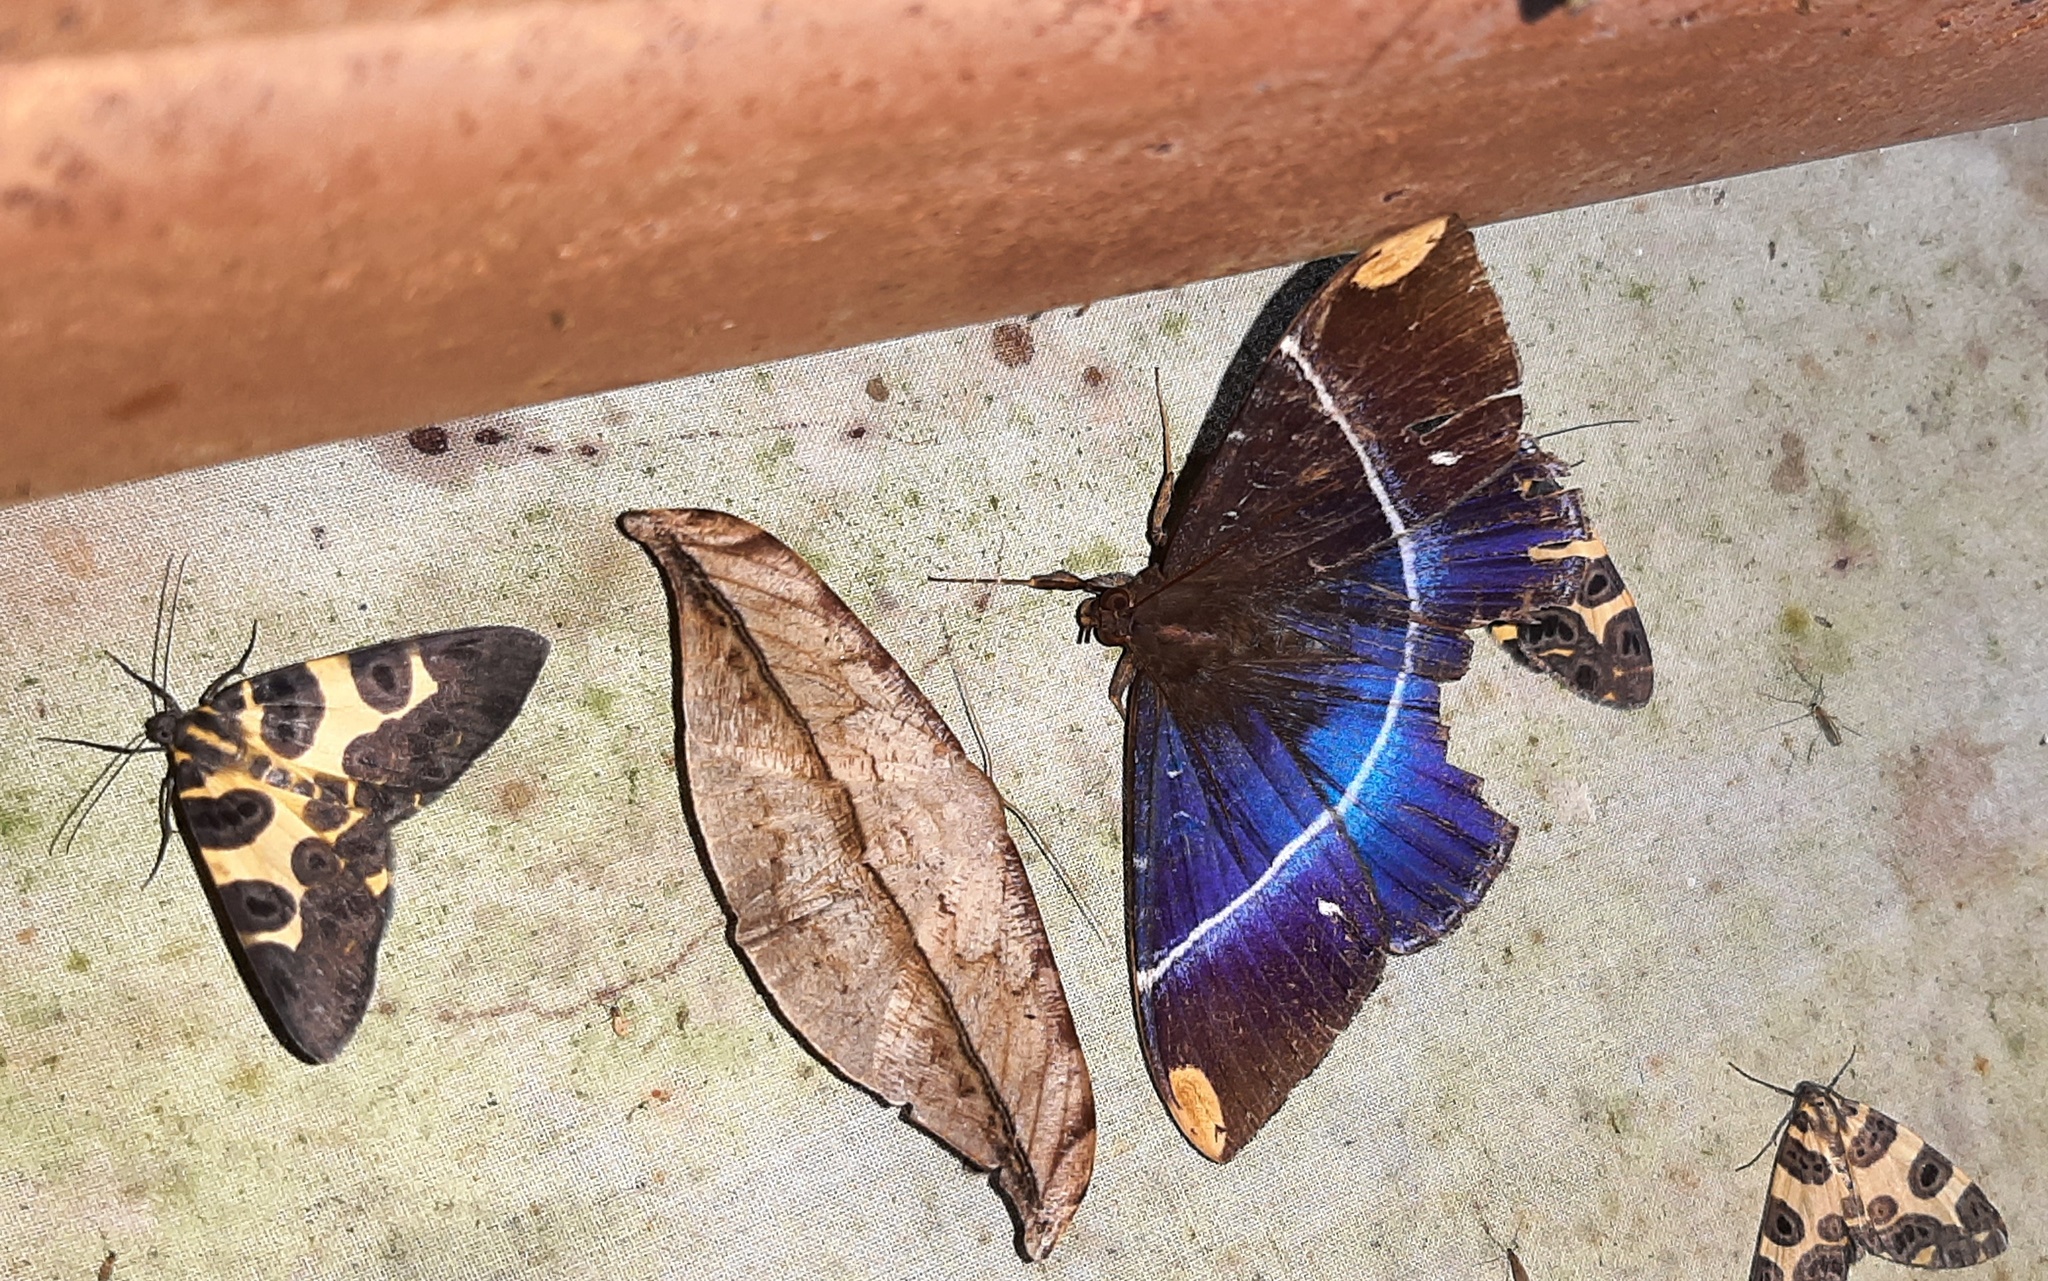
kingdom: Animalia
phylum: Arthropoda
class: Insecta
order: Lepidoptera
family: Erebidae
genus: Hemeroblemma
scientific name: Hemeroblemma
